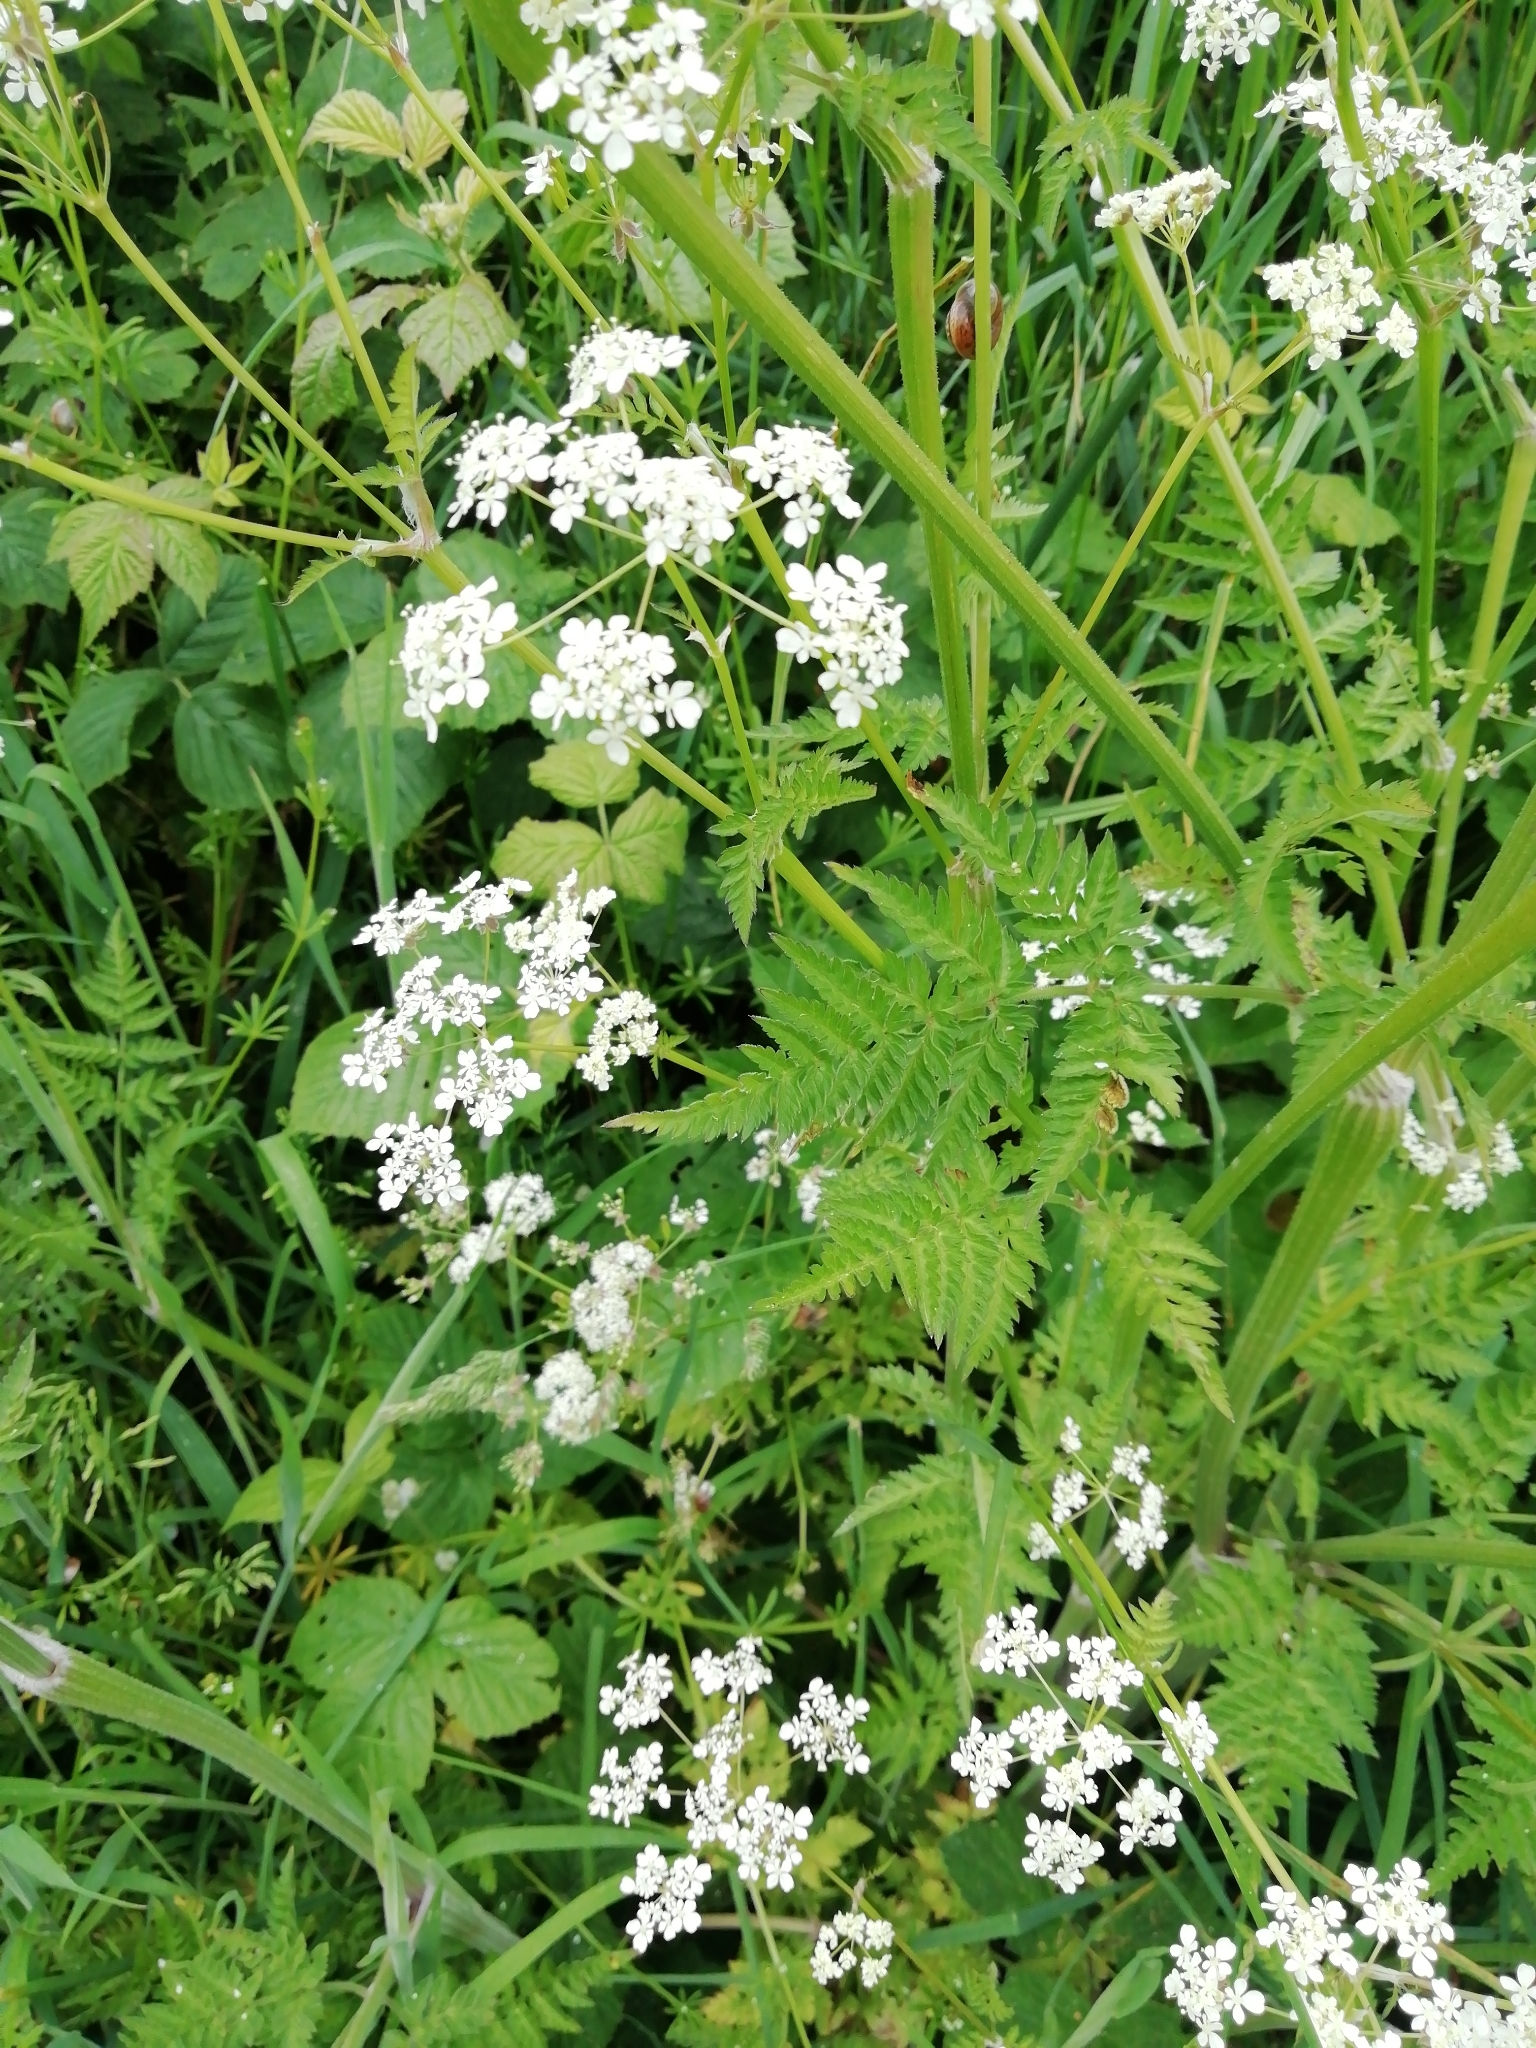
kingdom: Plantae
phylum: Tracheophyta
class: Magnoliopsida
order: Apiales
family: Apiaceae
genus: Anthriscus
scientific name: Anthriscus sylvestris
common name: Cow parsley
